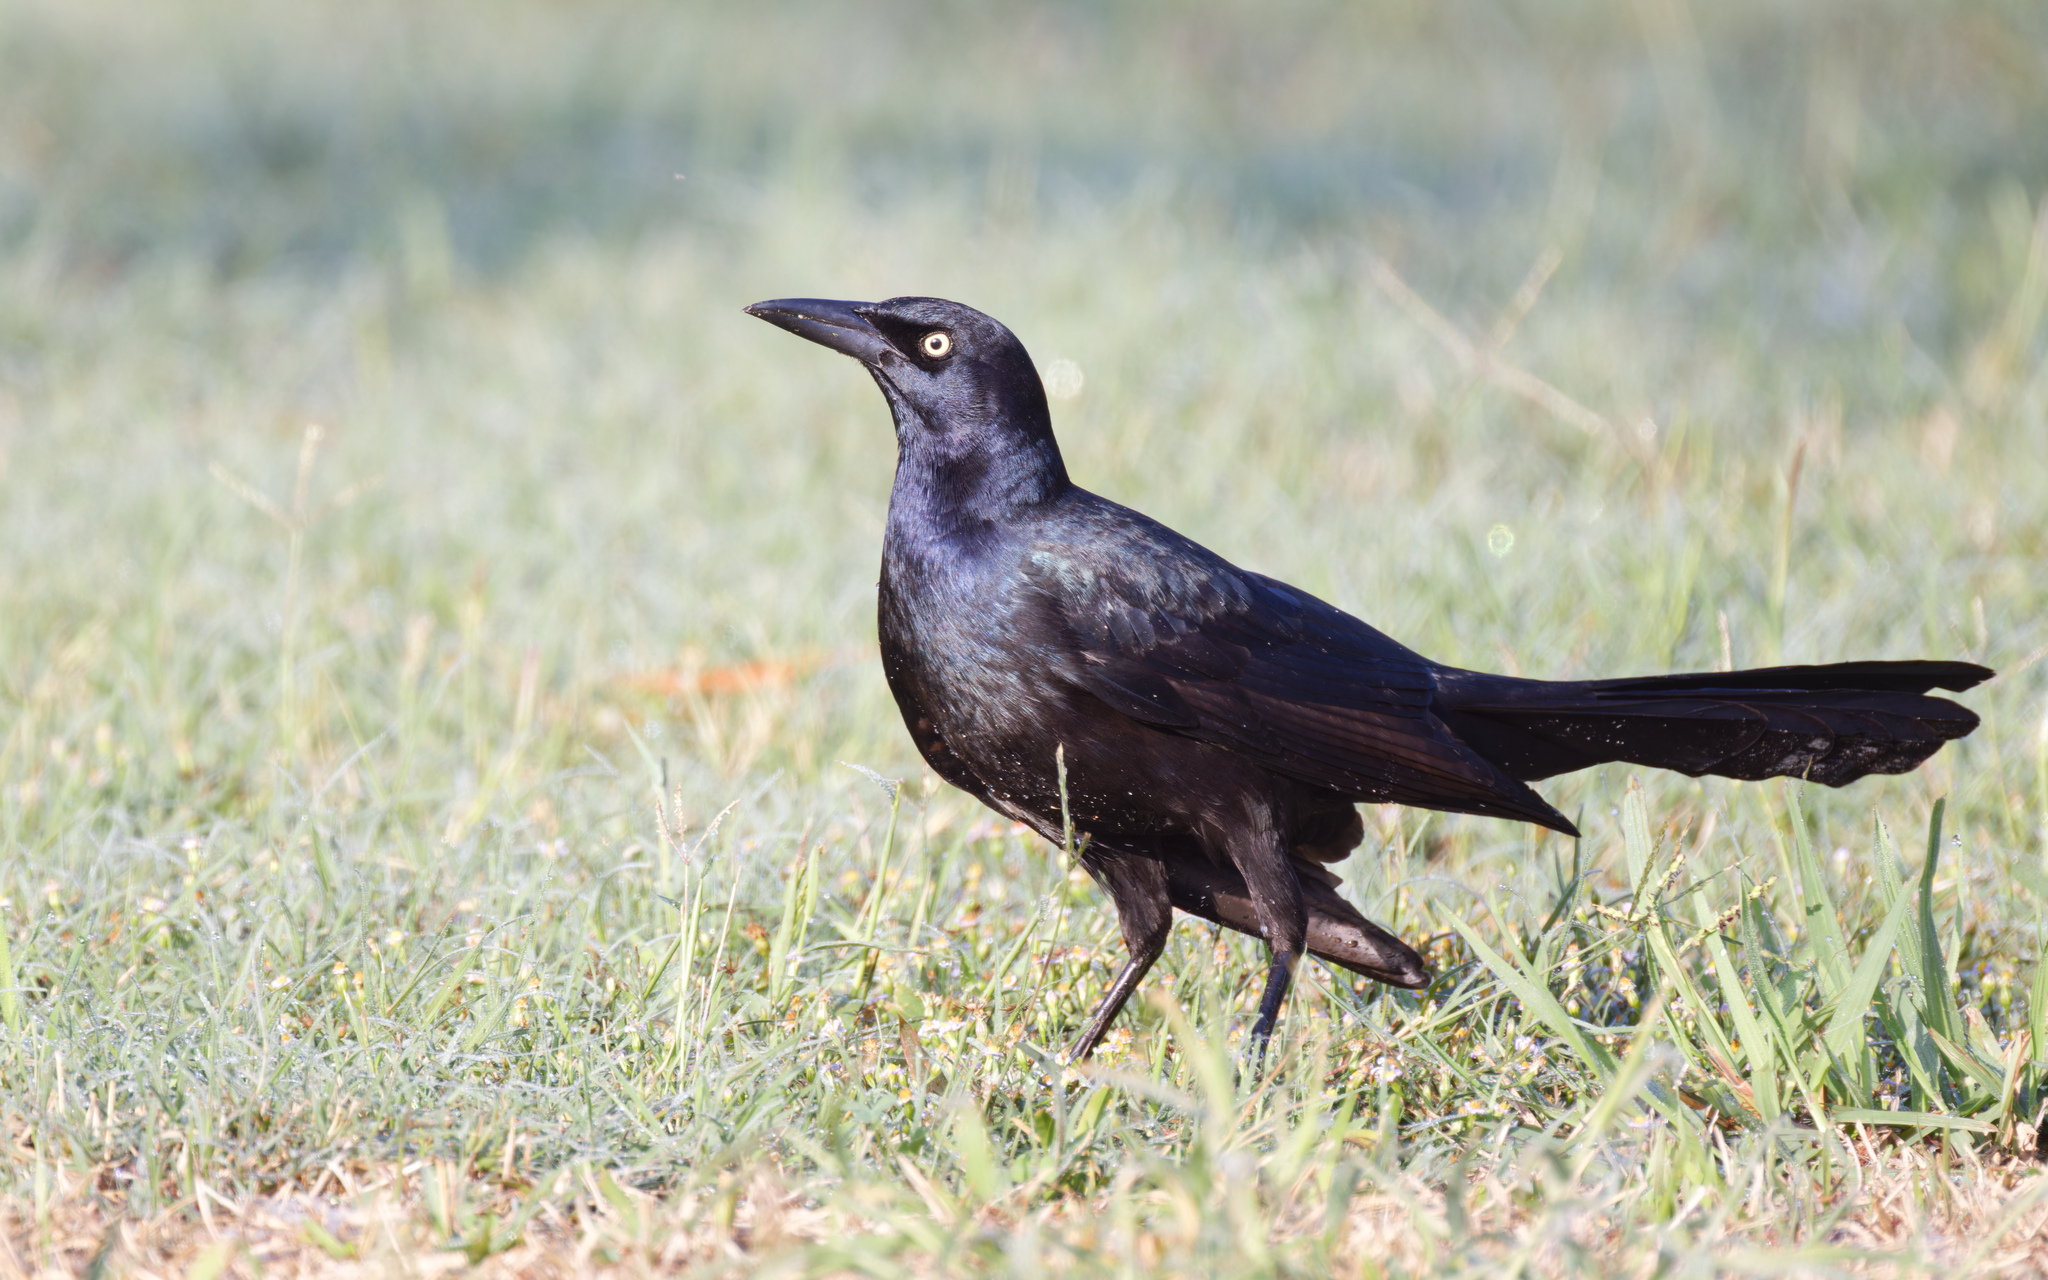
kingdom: Animalia
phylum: Chordata
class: Aves
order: Passeriformes
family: Icteridae
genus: Quiscalus
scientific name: Quiscalus mexicanus
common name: Great-tailed grackle
